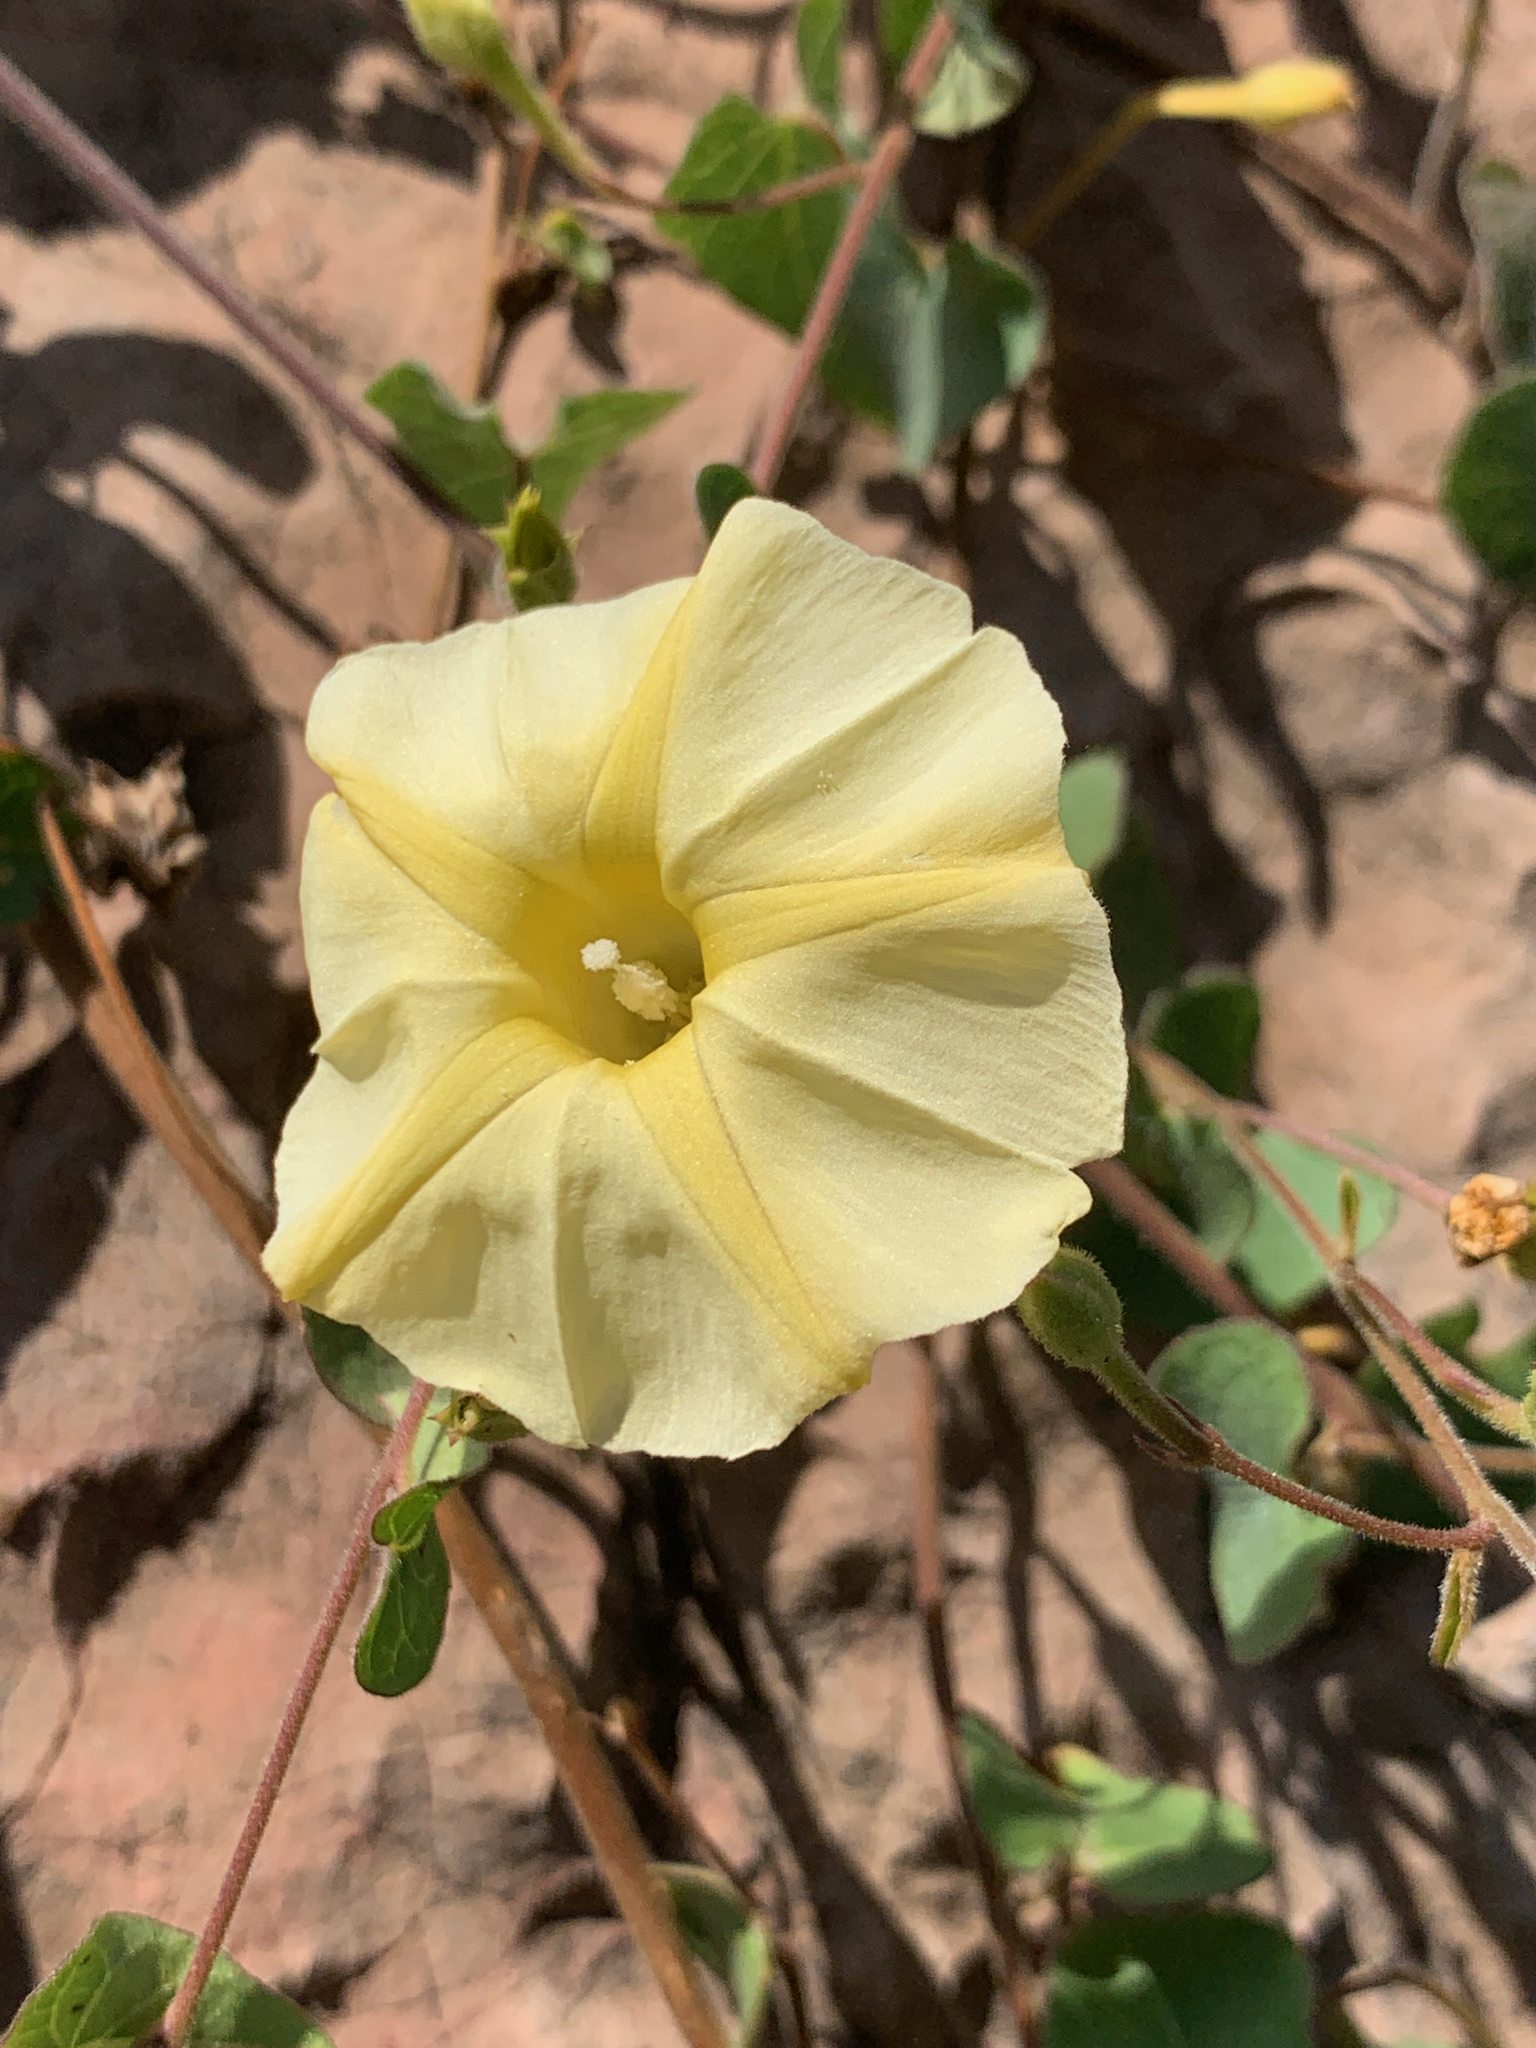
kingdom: Plantae
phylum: Tracheophyta
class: Magnoliopsida
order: Solanales
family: Convolvulaceae
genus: Ipomoea
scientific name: Ipomoea obscura
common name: Obscure morning-glory
